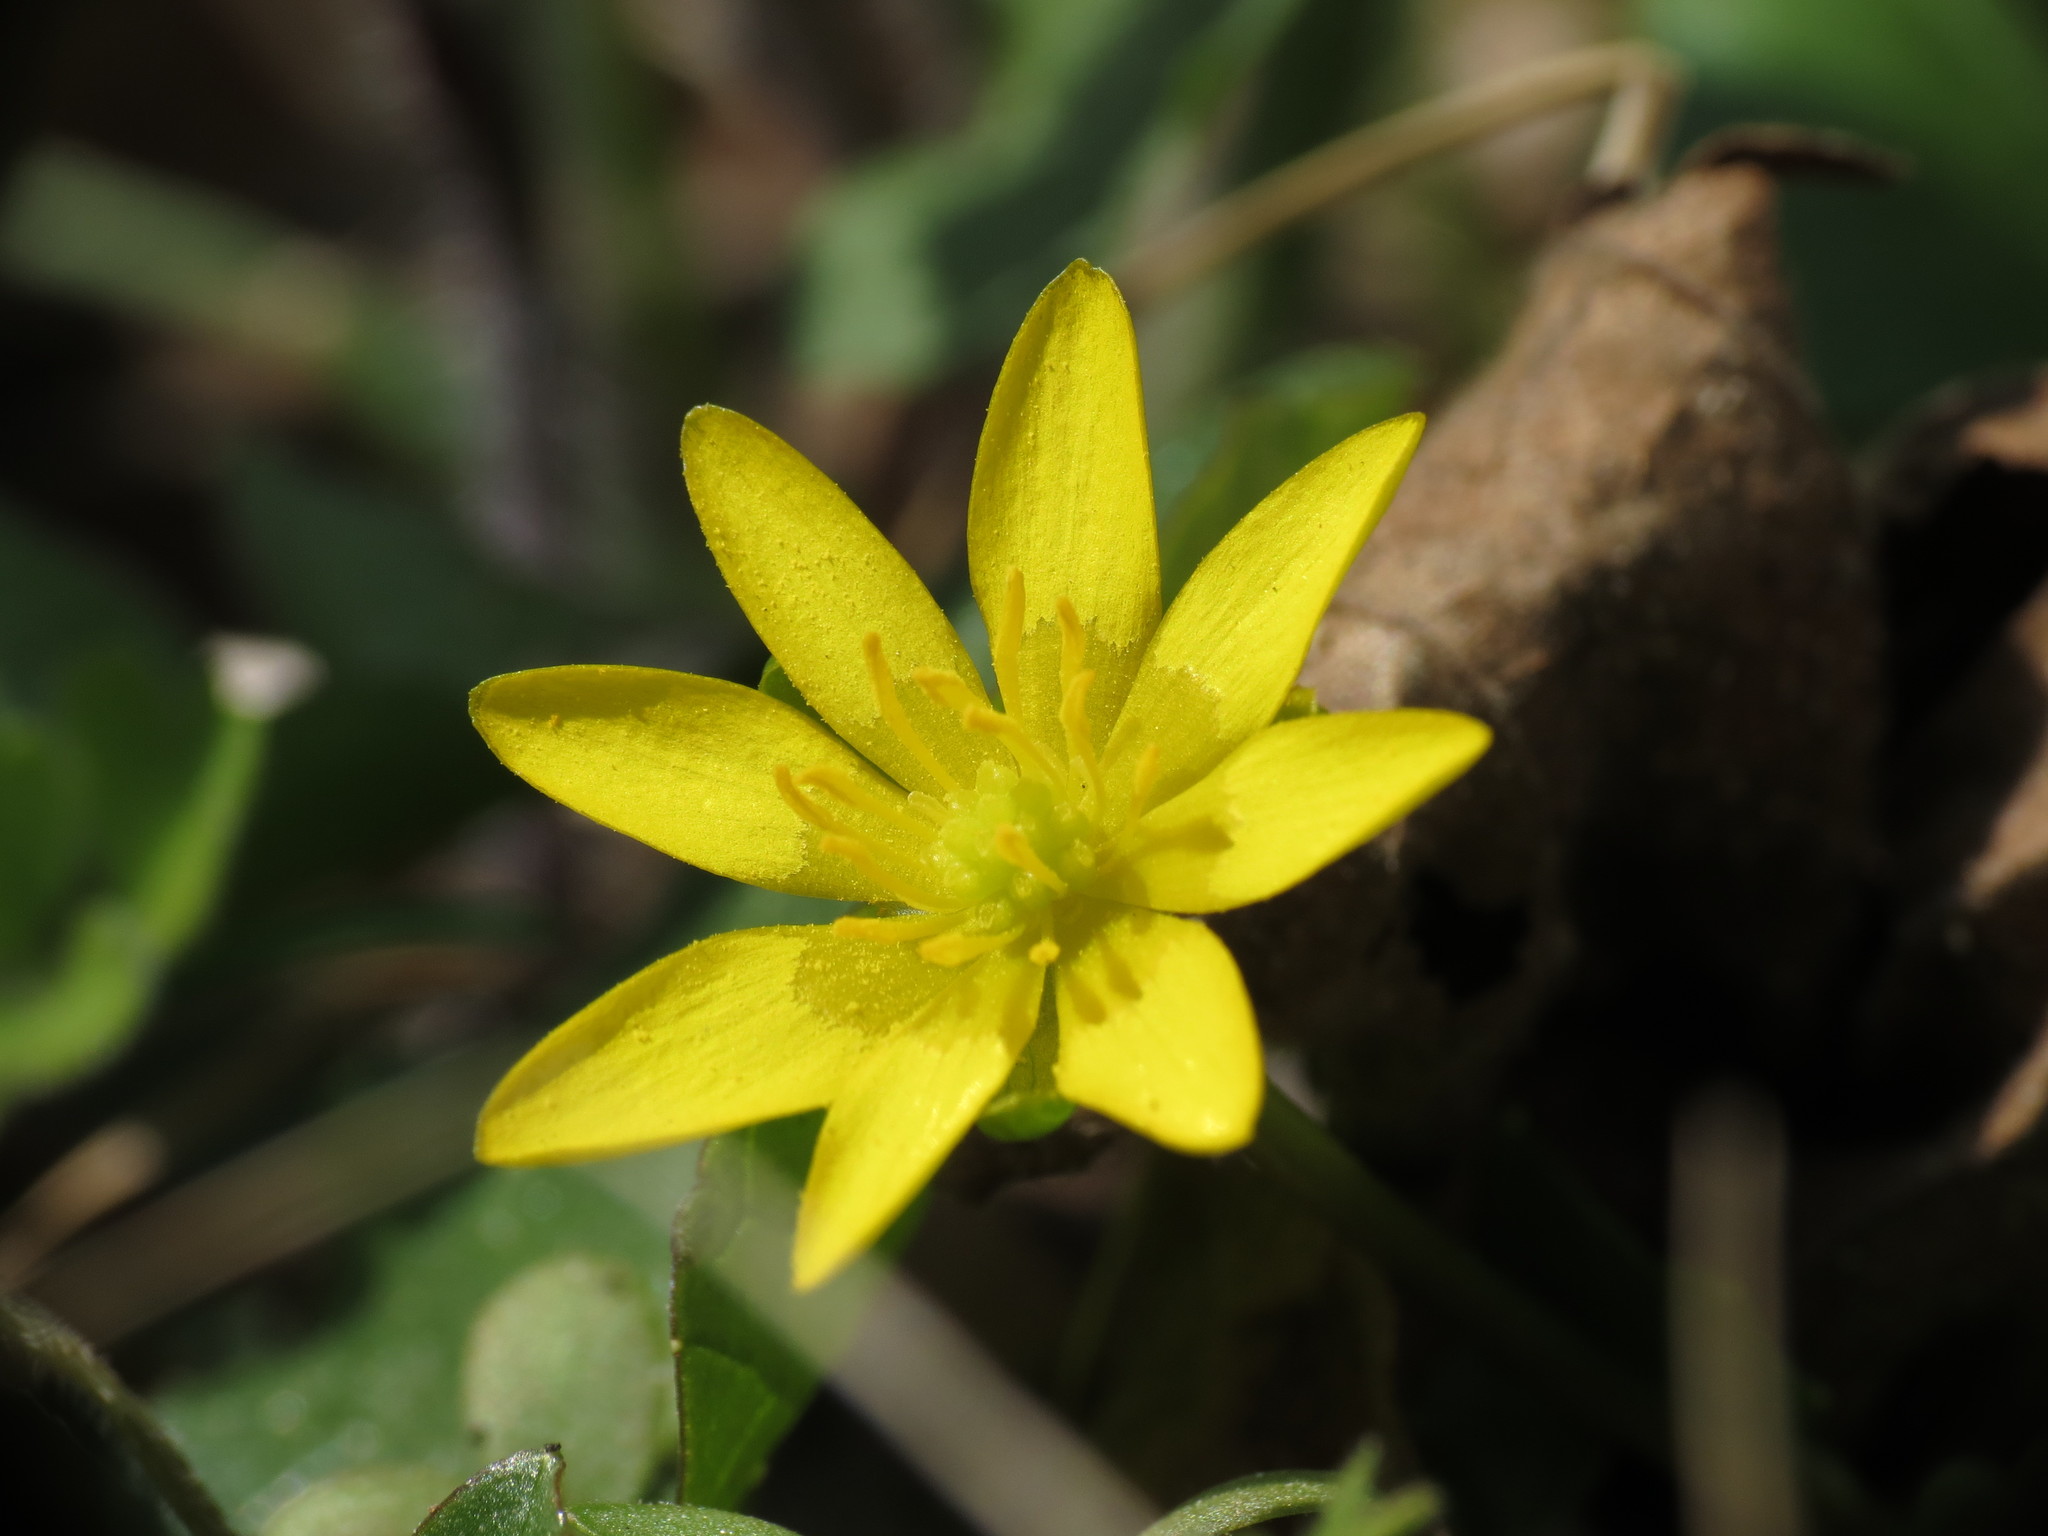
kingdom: Plantae
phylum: Tracheophyta
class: Magnoliopsida
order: Ranunculales
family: Ranunculaceae
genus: Ficaria
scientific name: Ficaria verna
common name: Lesser celandine
